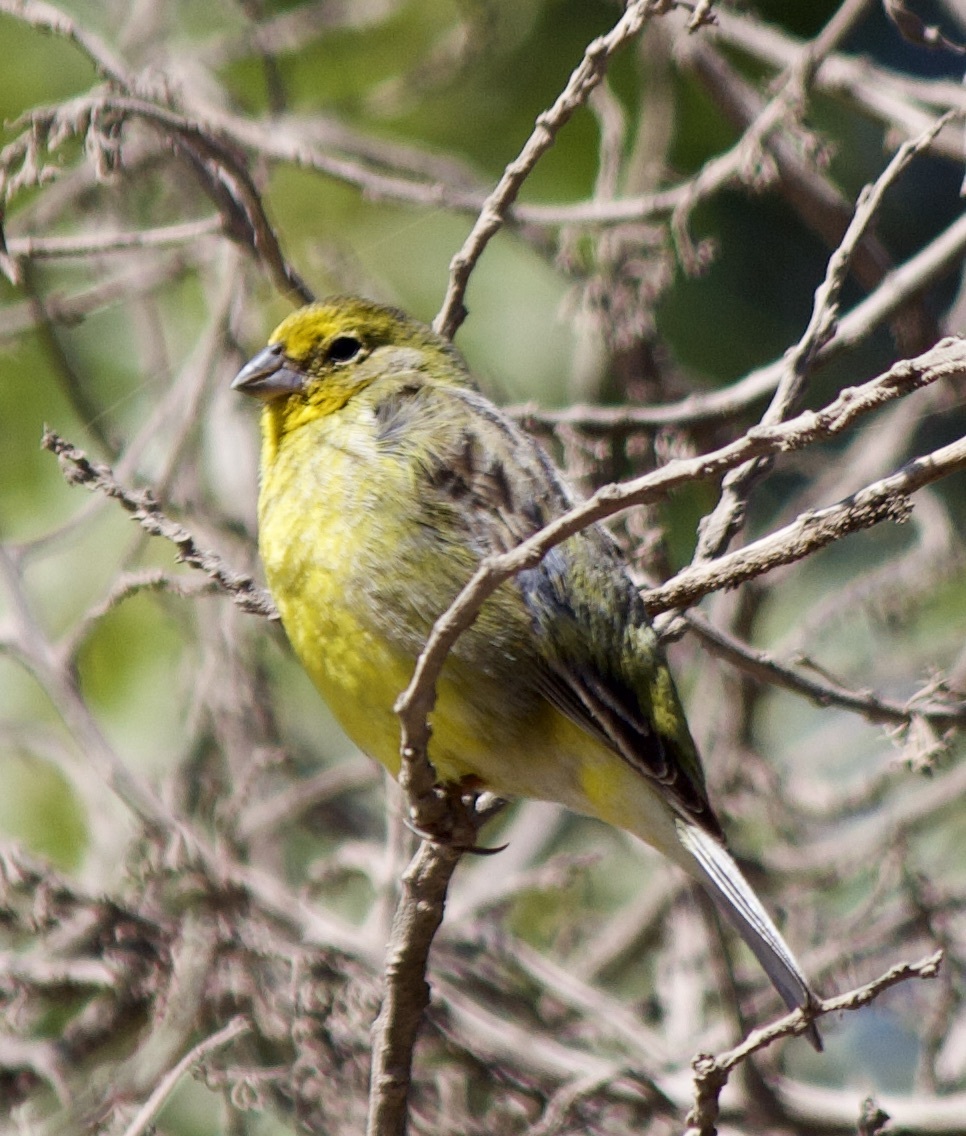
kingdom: Animalia
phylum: Chordata
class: Aves
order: Passeriformes
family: Thraupidae
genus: Sicalis
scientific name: Sicalis luteola
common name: Grassland yellow-finch
